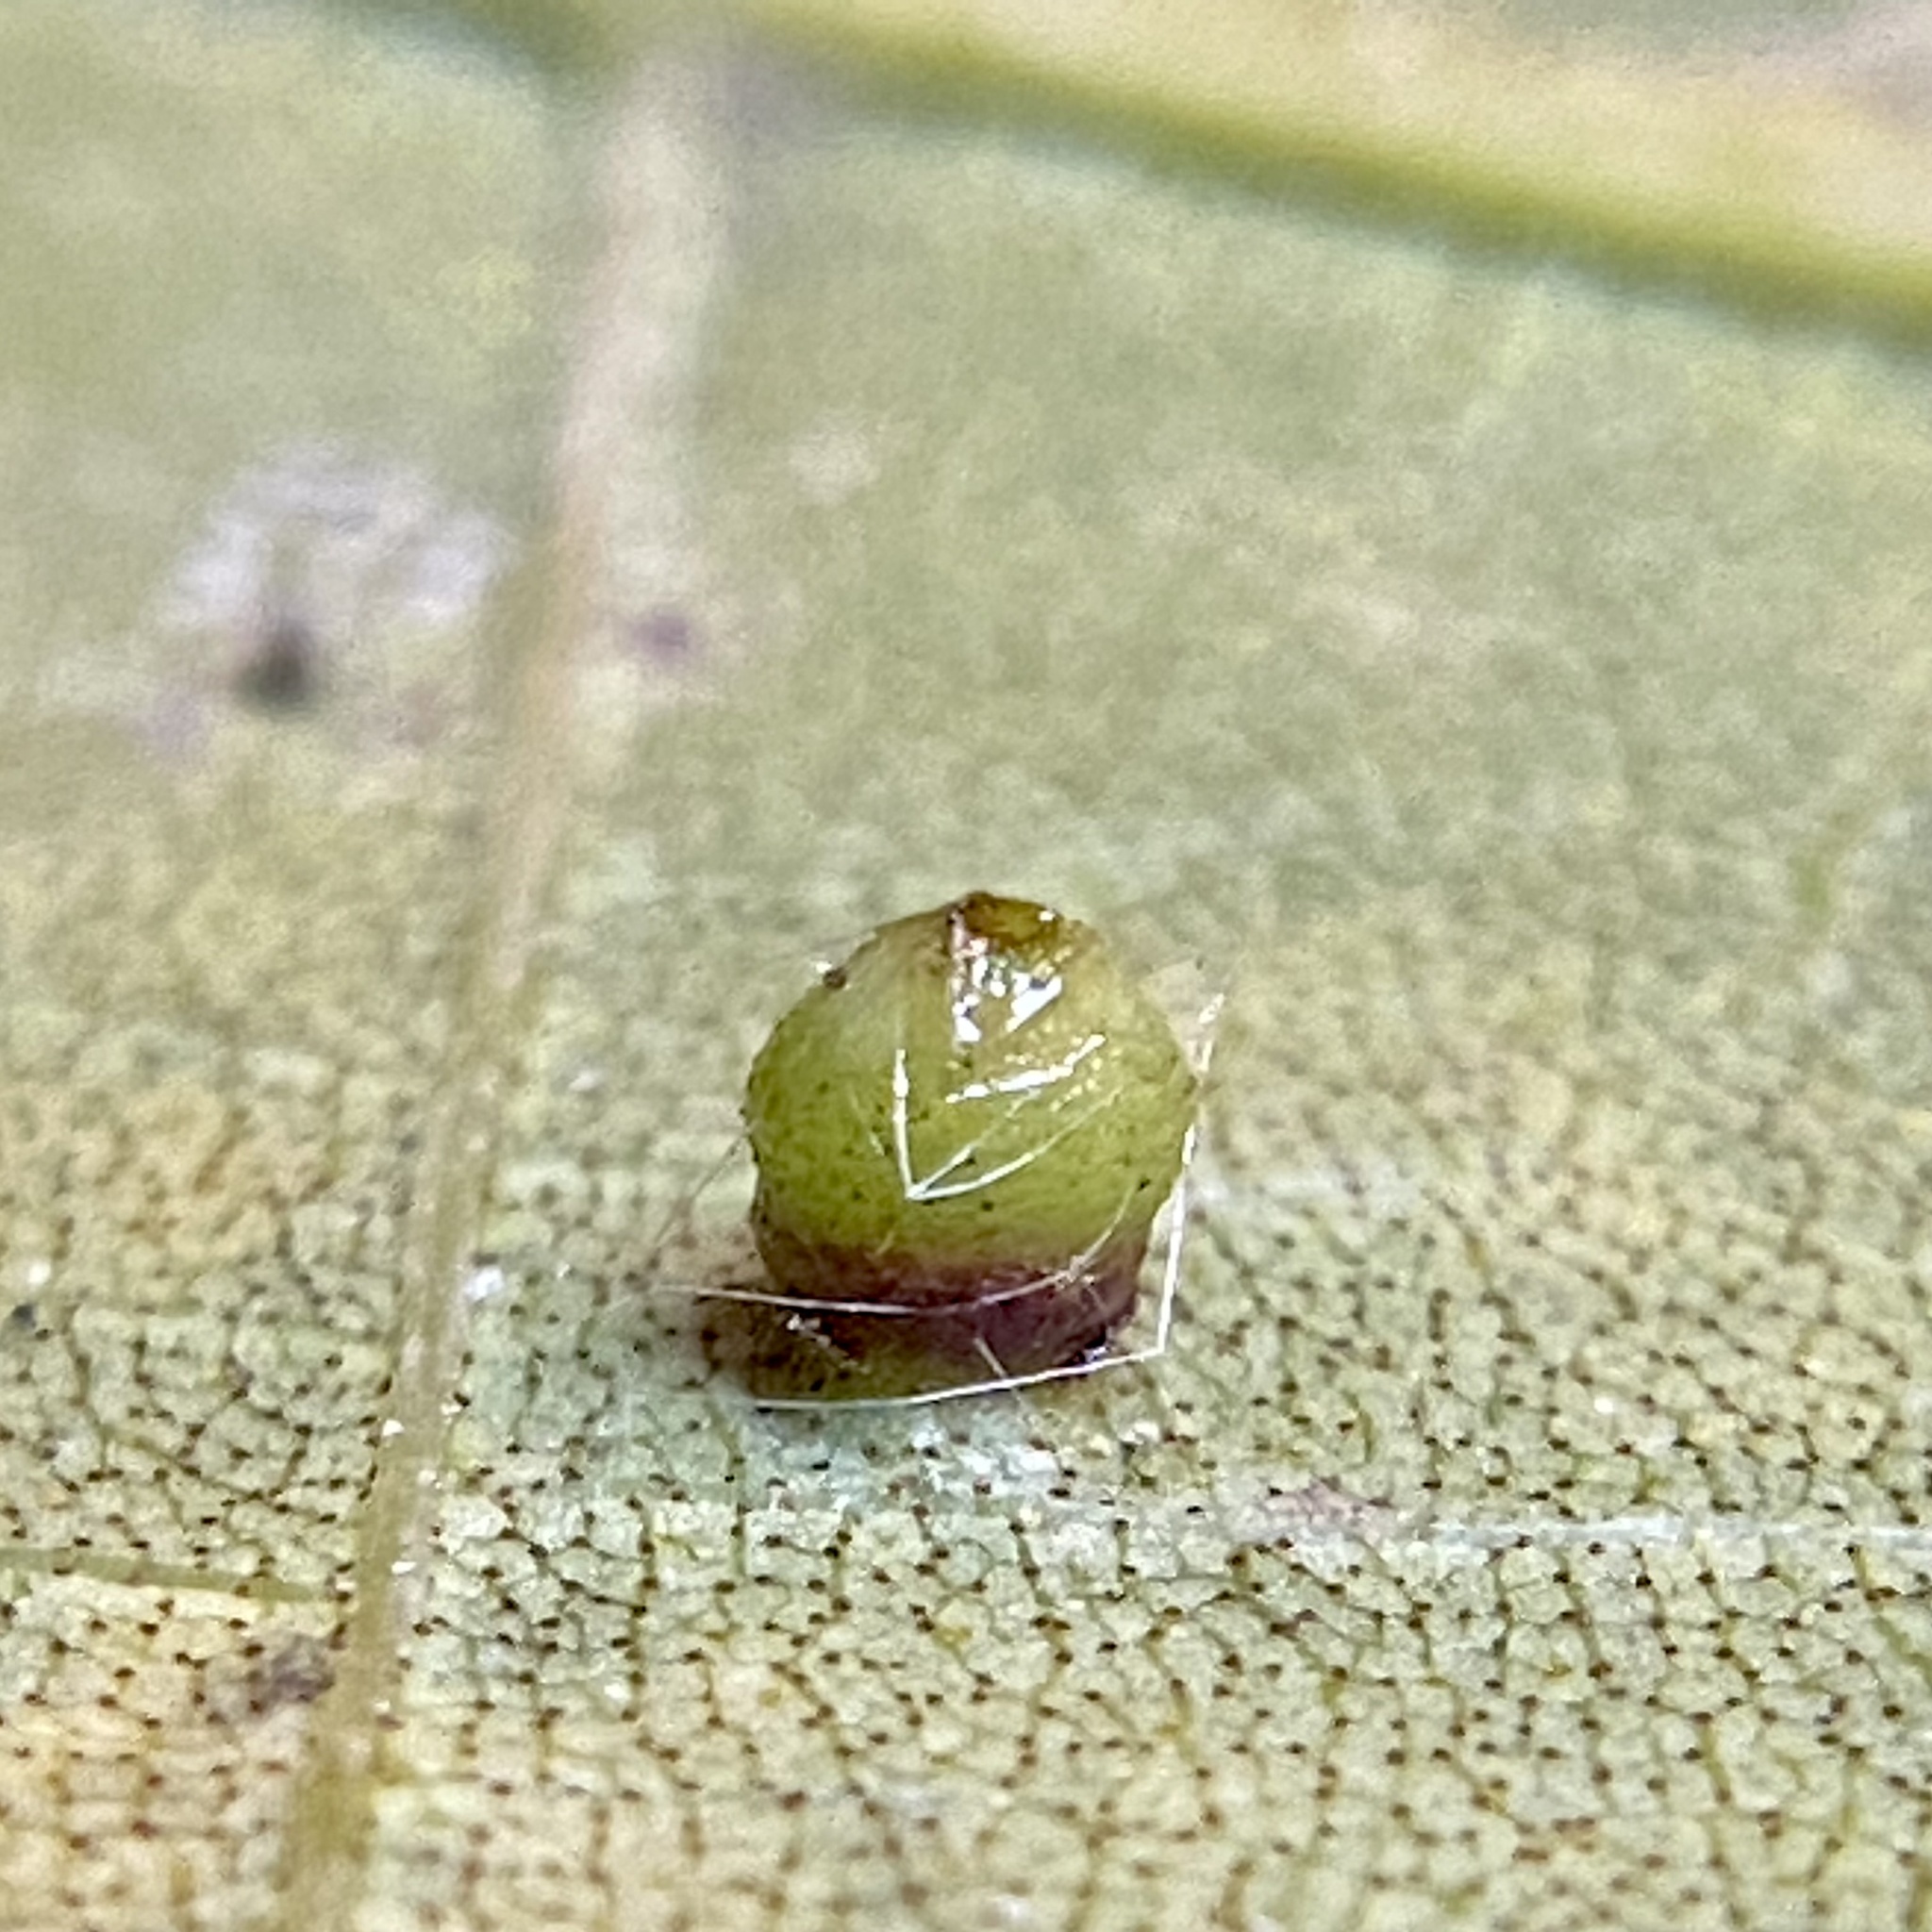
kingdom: Animalia
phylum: Arthropoda
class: Insecta
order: Diptera
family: Cecidomyiidae
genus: Caryomyia
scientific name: Caryomyia caryae
